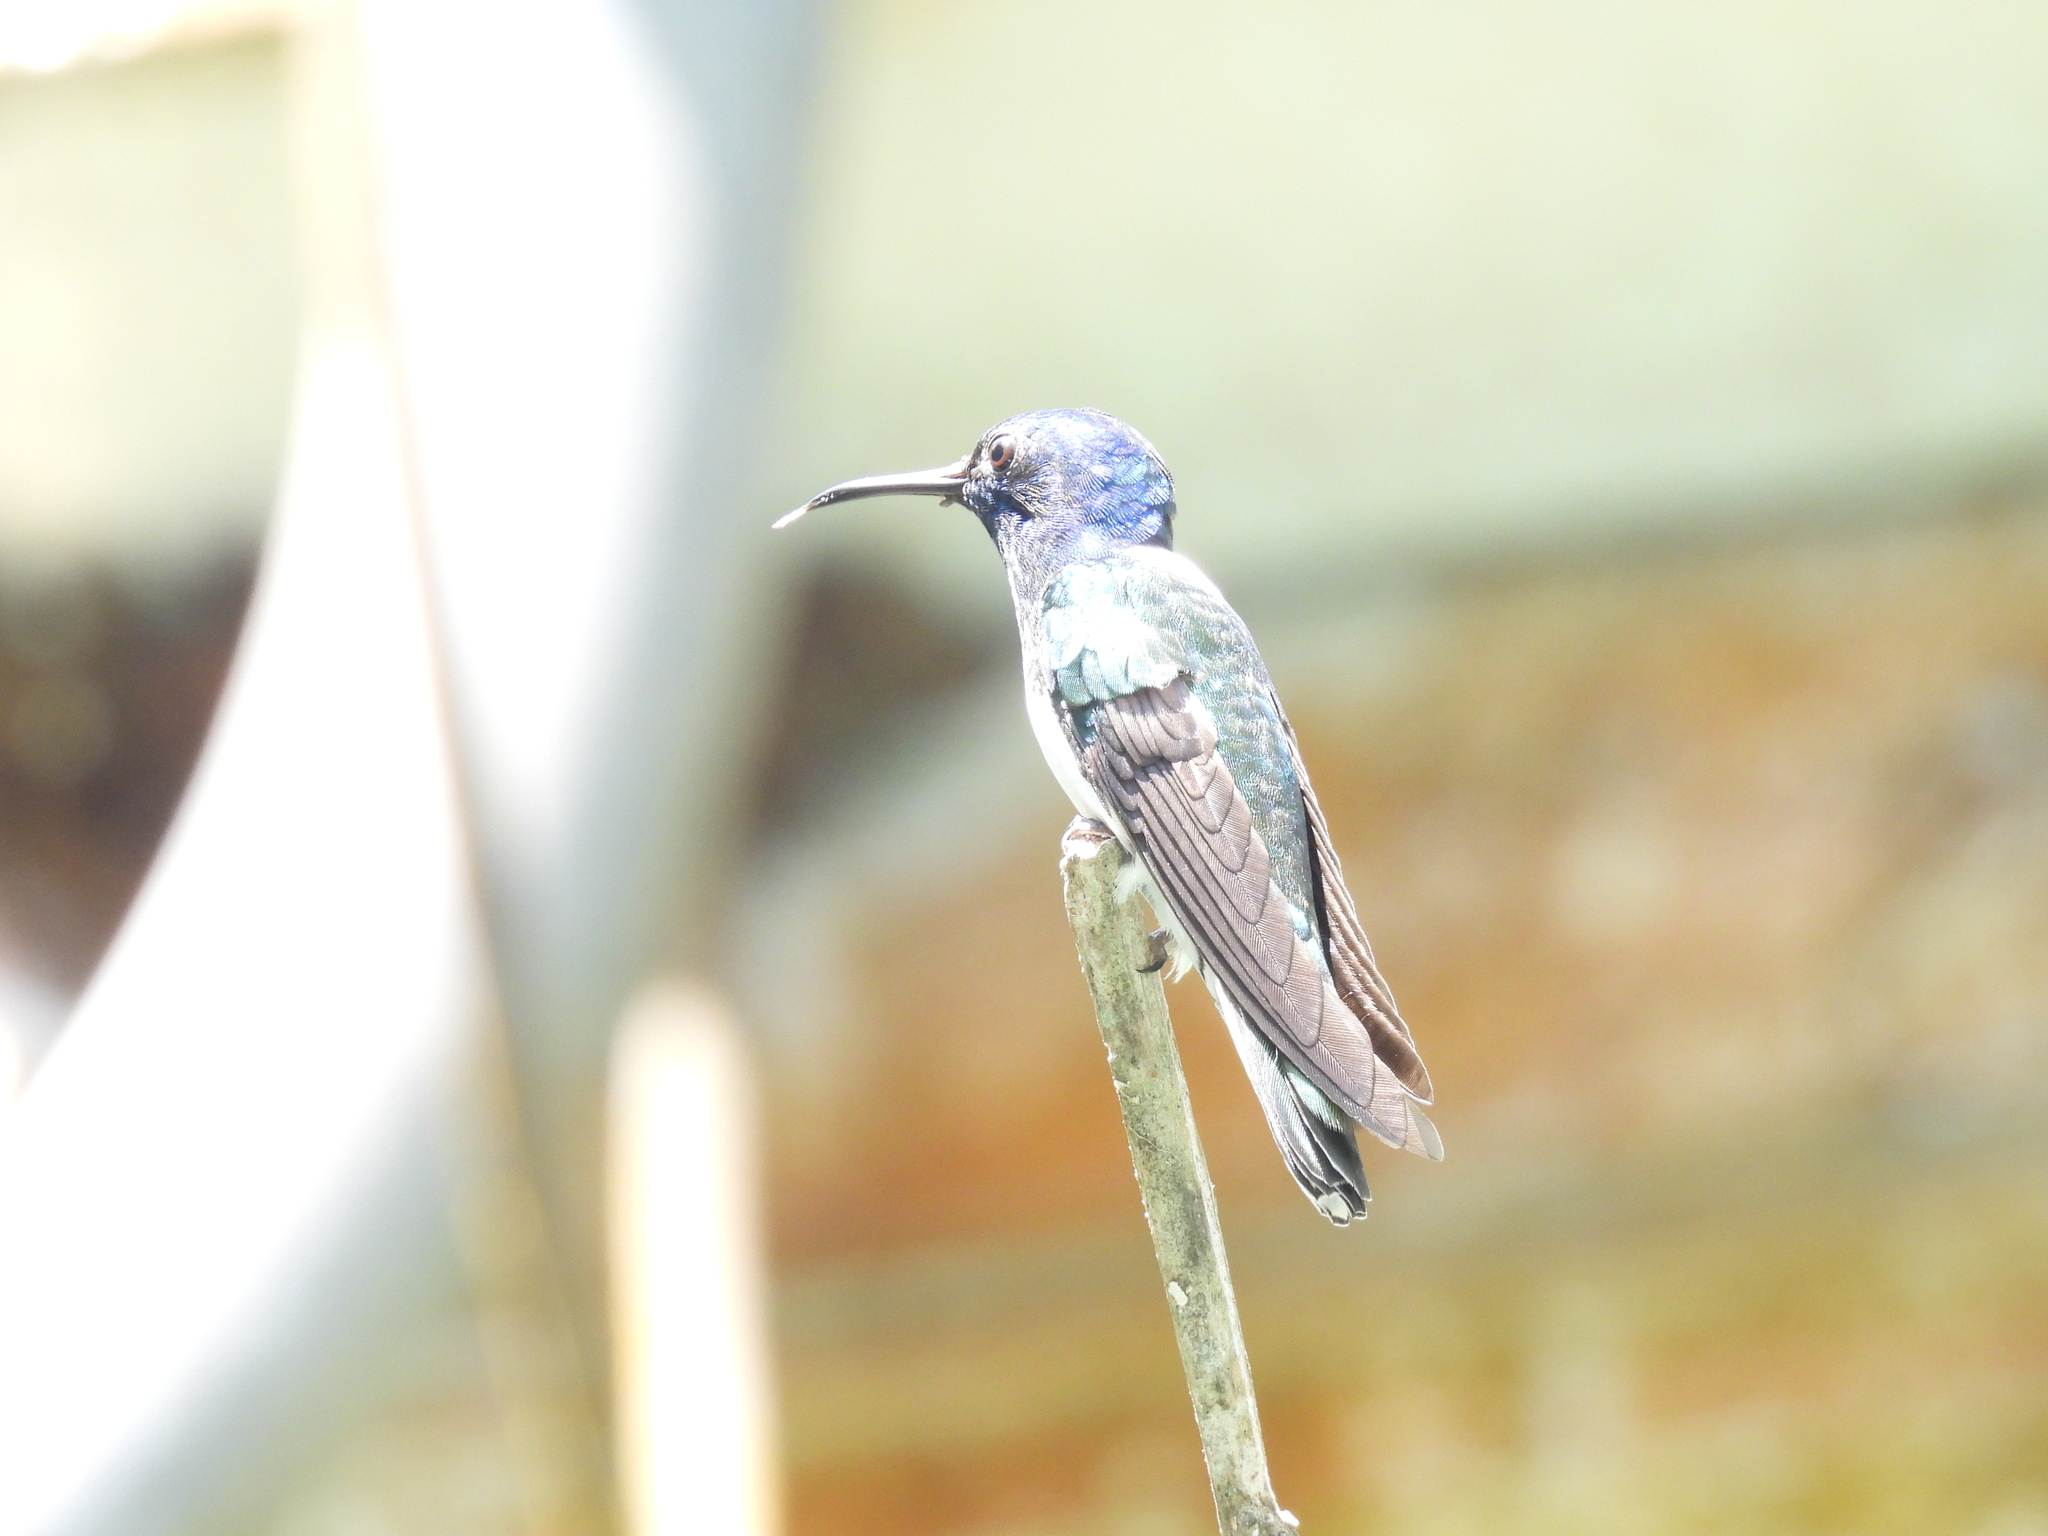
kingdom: Animalia
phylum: Chordata
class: Aves
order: Apodiformes
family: Trochilidae
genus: Florisuga
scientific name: Florisuga mellivora
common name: White-necked jacobin
